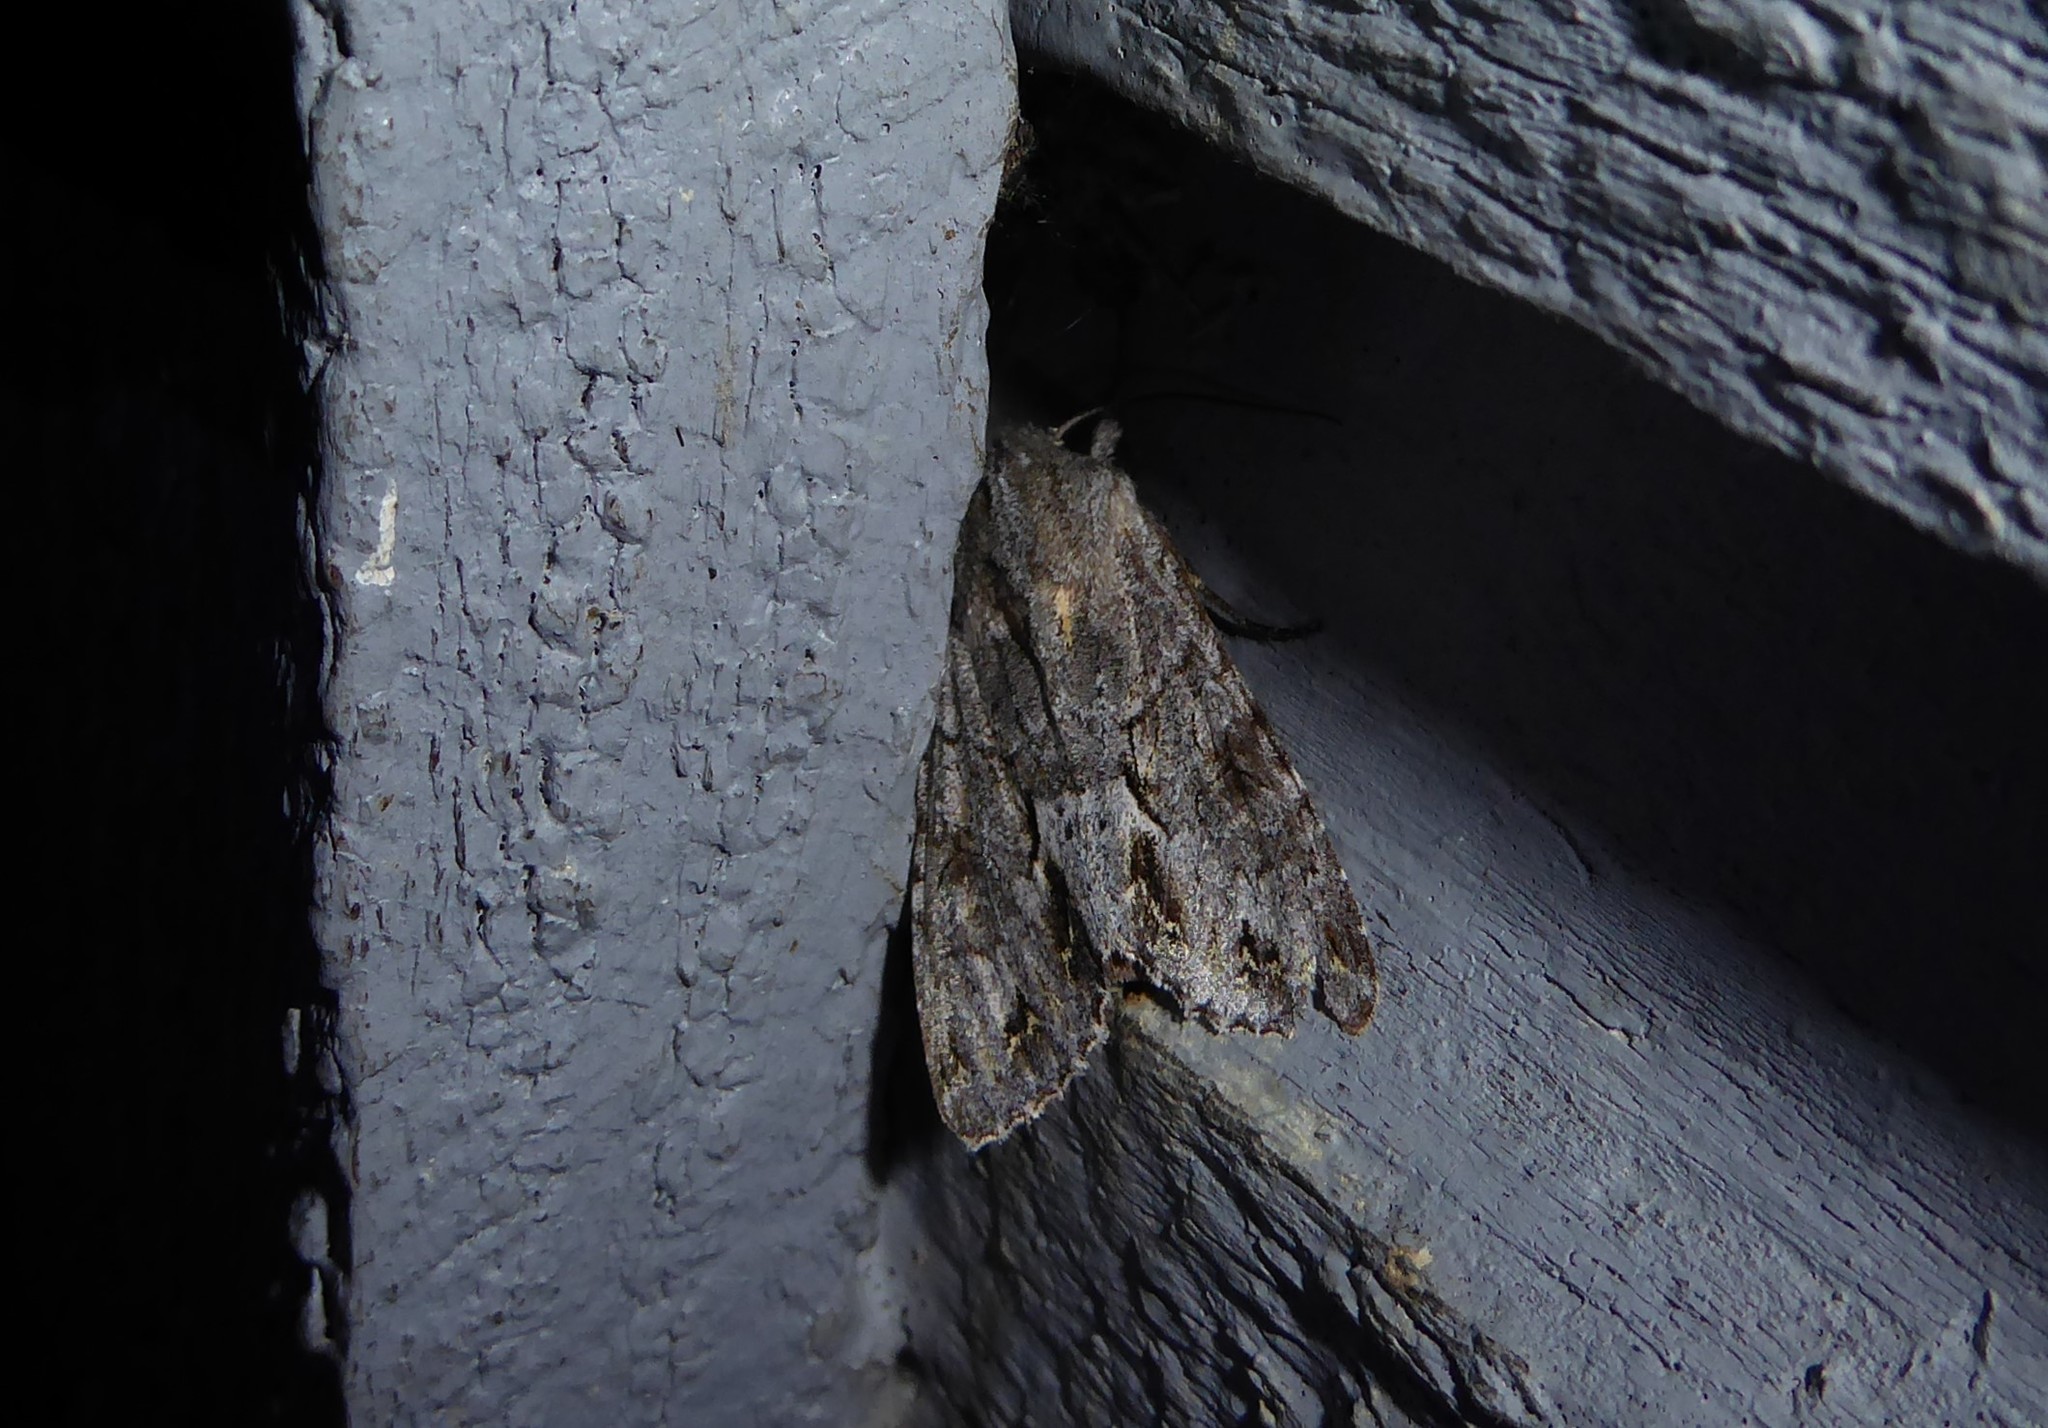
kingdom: Animalia
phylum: Arthropoda
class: Insecta
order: Lepidoptera
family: Noctuidae
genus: Ichneutica
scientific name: Ichneutica
